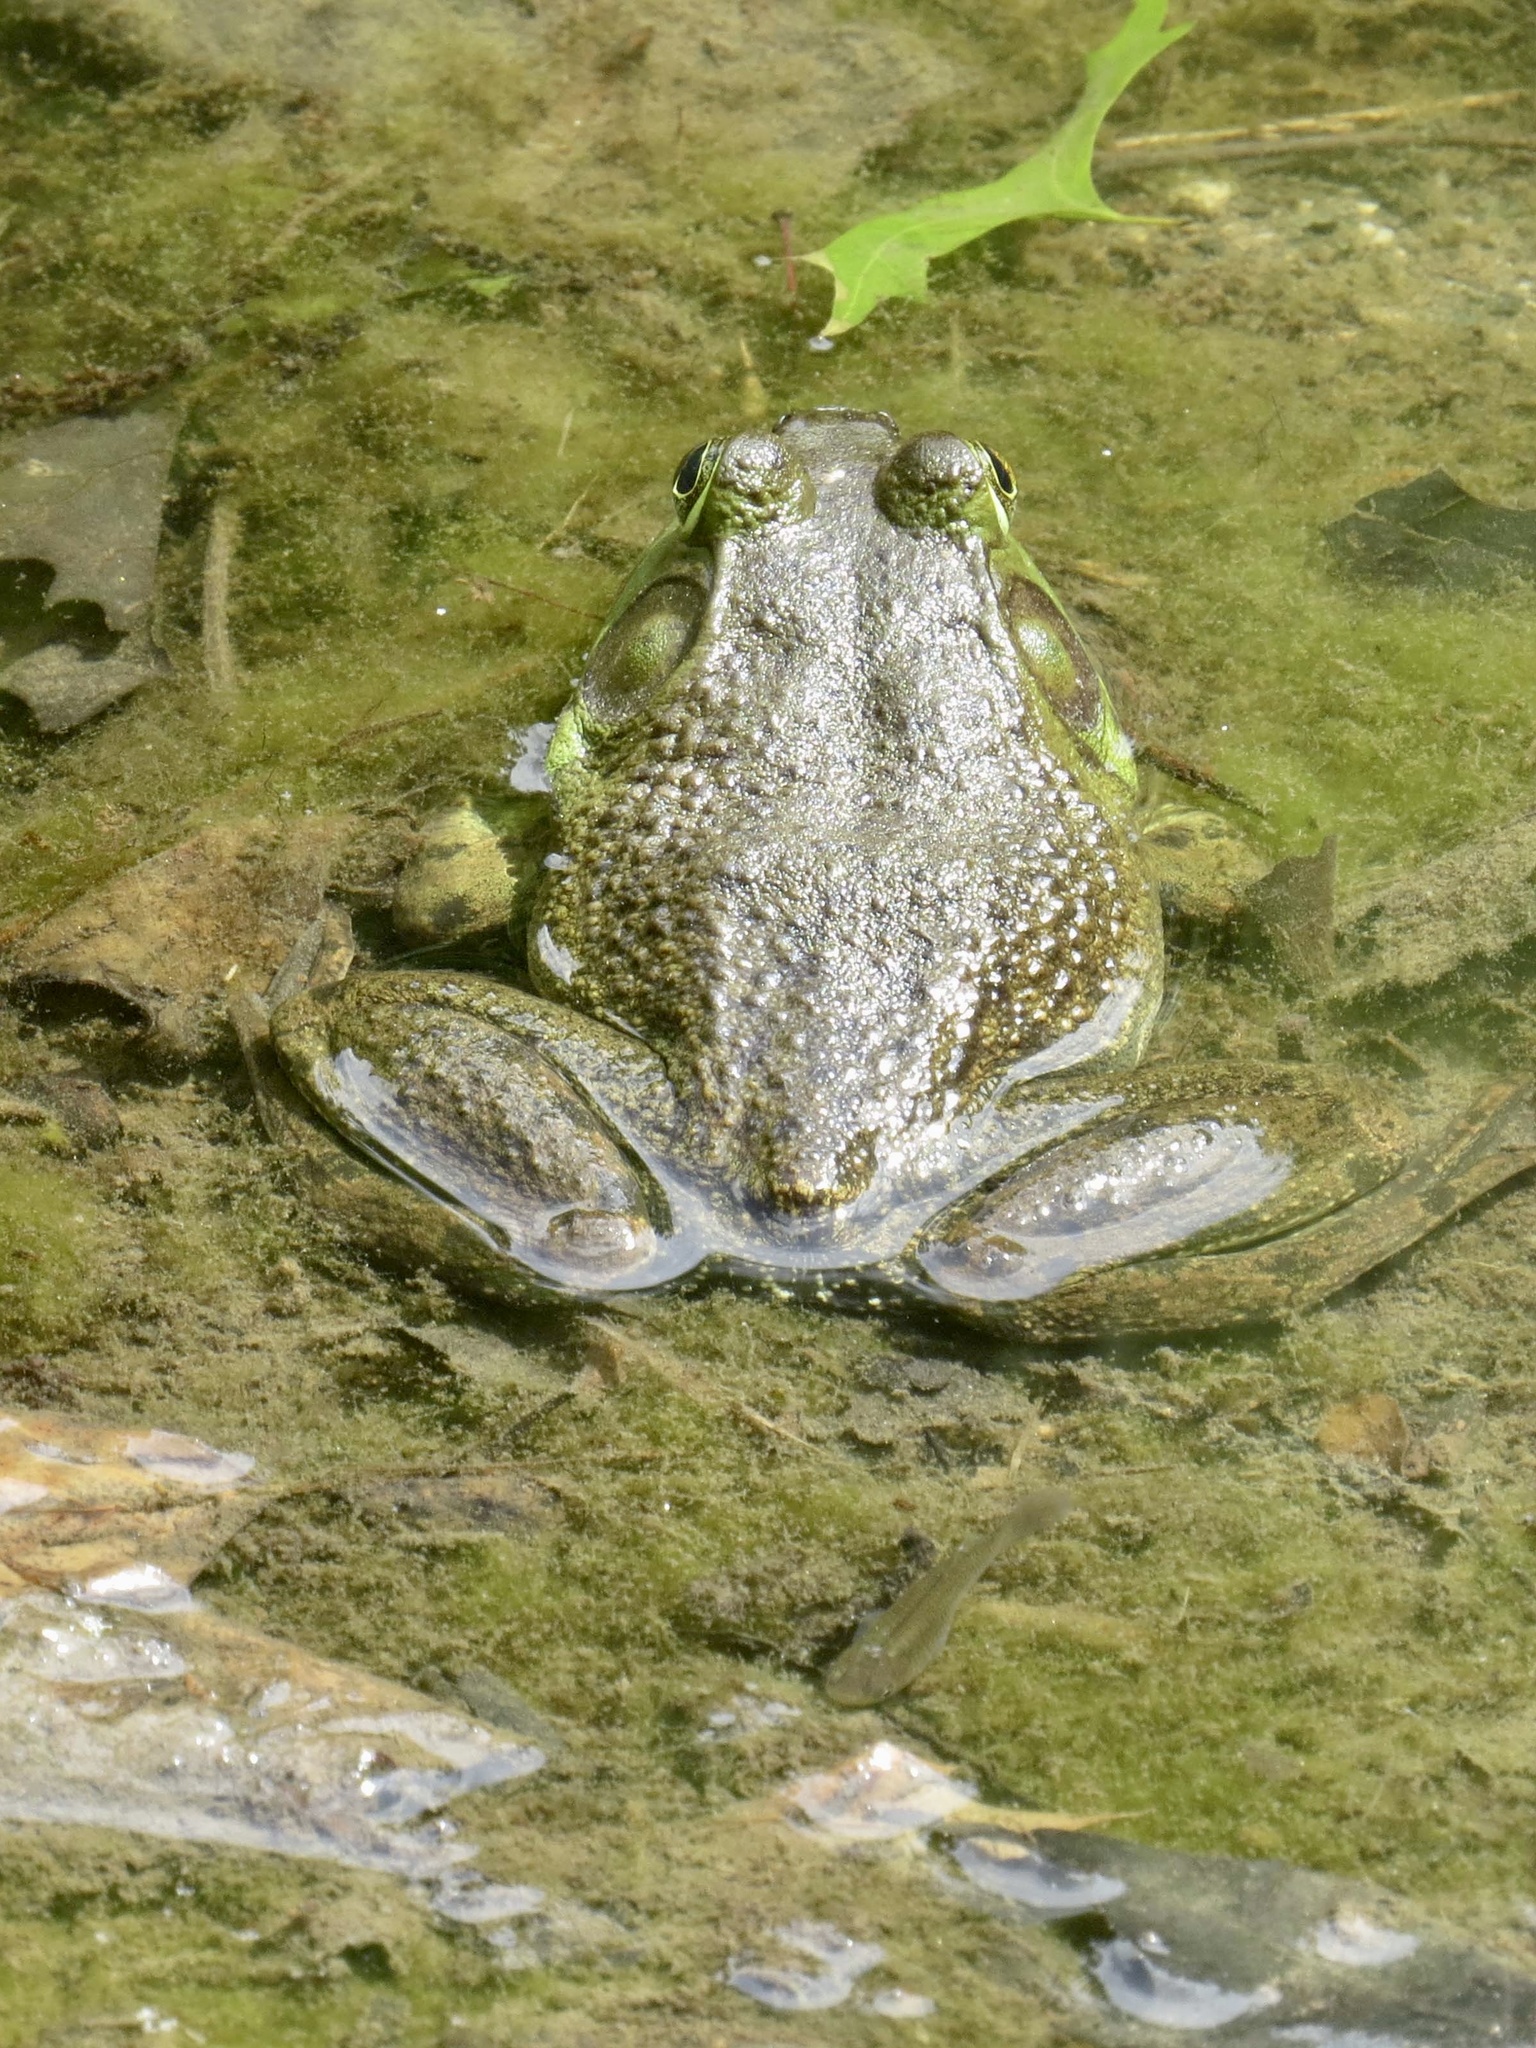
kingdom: Animalia
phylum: Chordata
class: Amphibia
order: Anura
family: Ranidae
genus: Lithobates
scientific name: Lithobates catesbeianus
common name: American bullfrog
